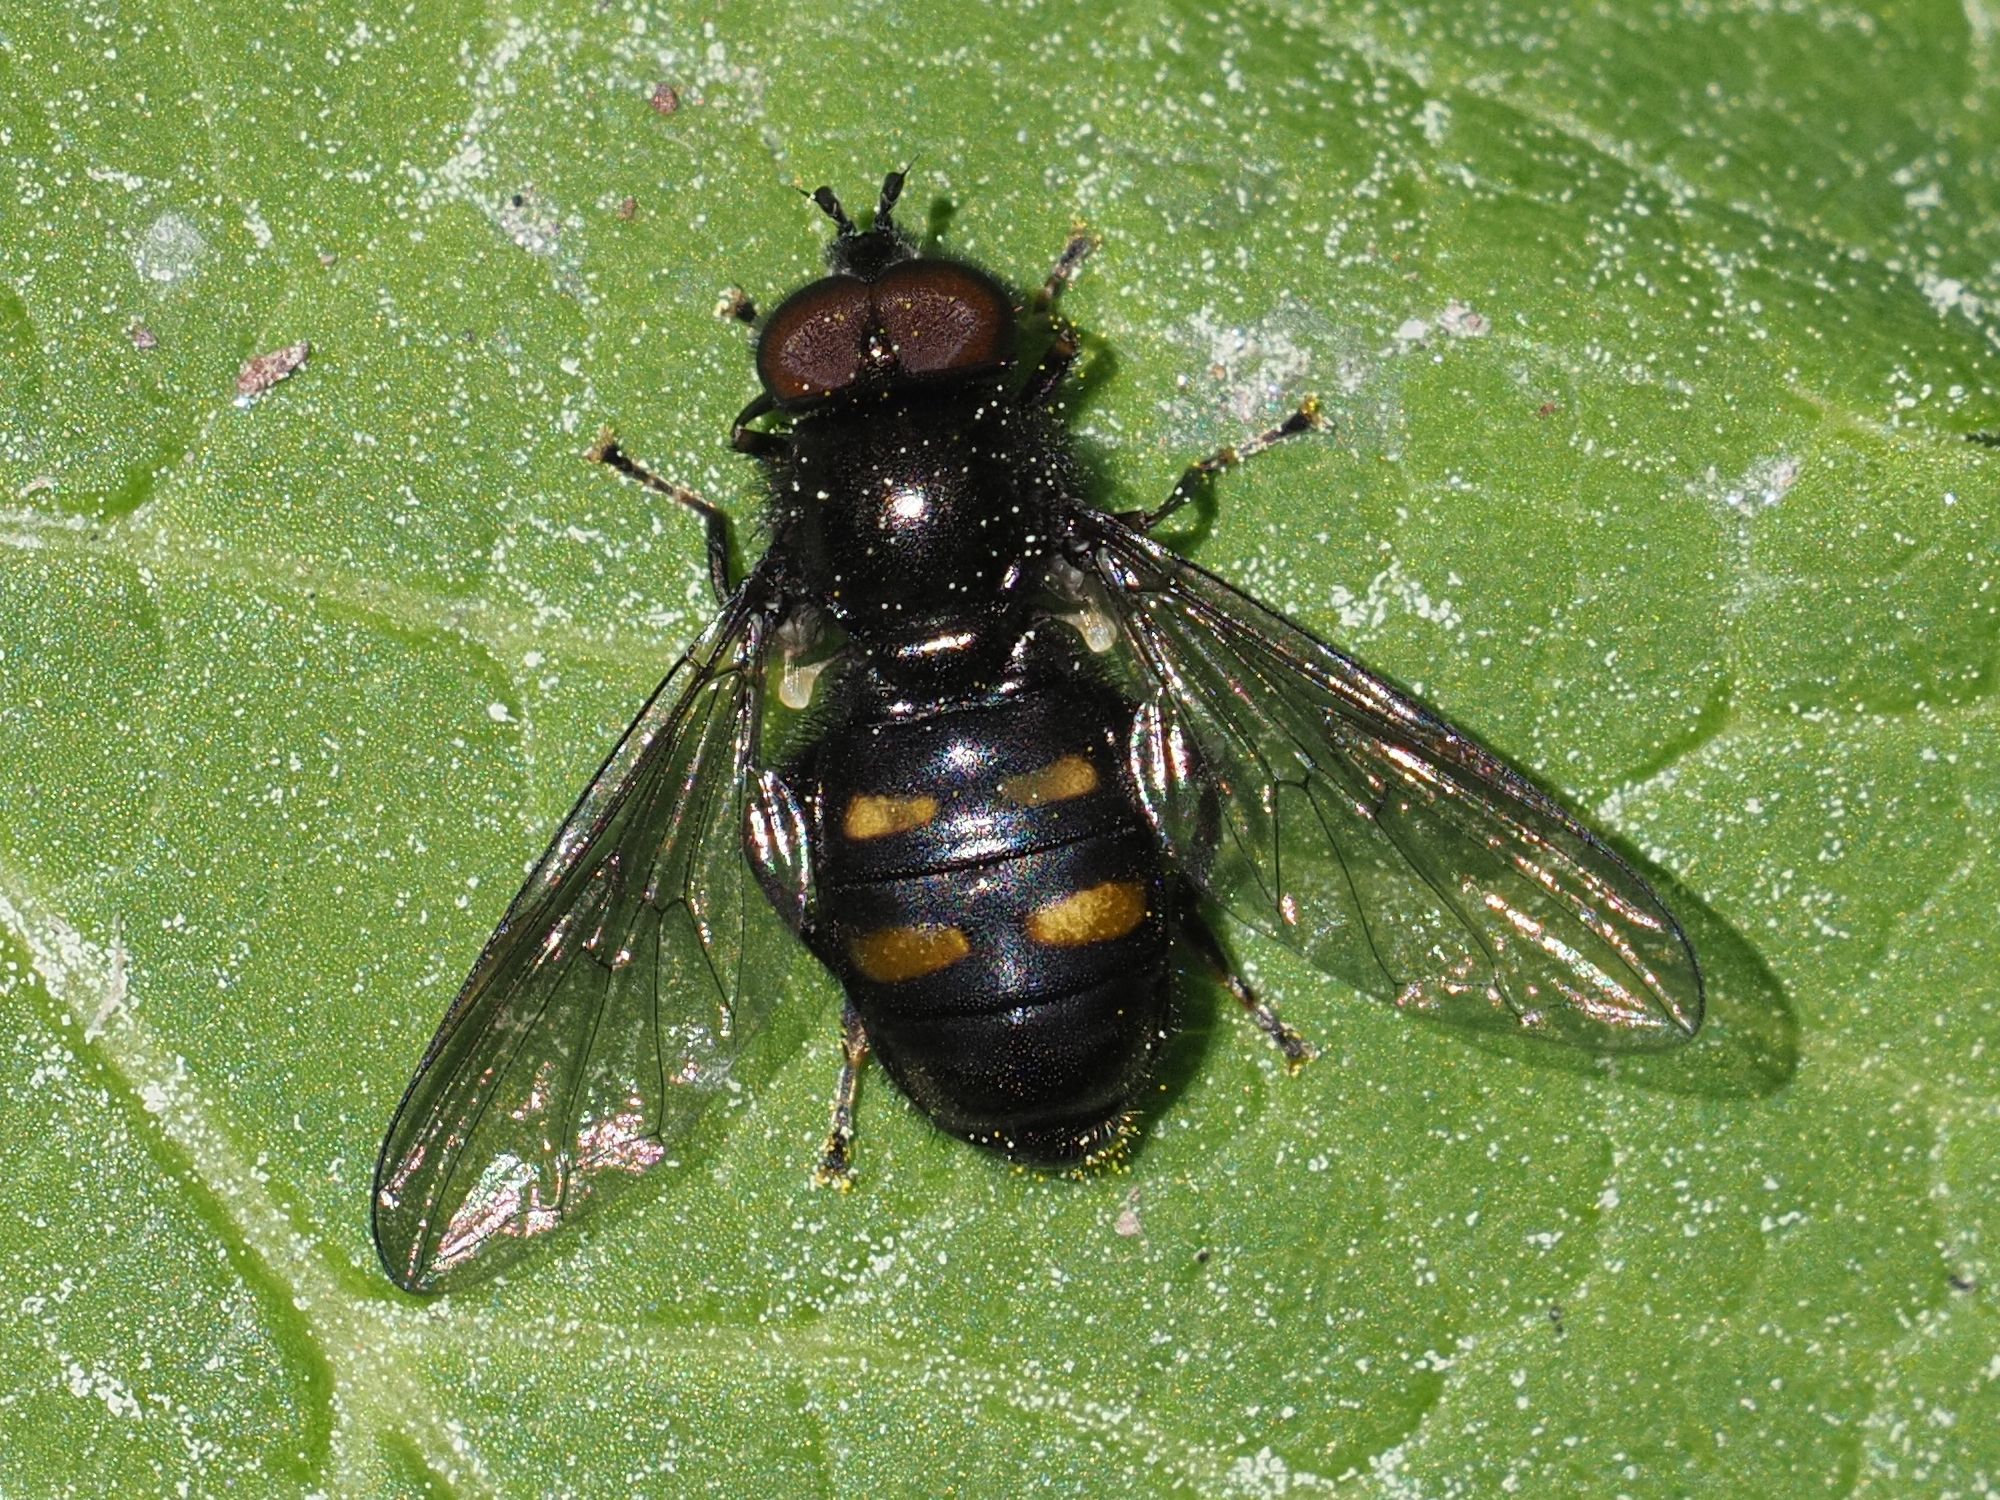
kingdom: Animalia
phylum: Arthropoda
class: Insecta
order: Diptera
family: Syrphidae
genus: Pipiza
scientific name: Pipiza quadrimaculata
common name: Four-spotted pipiza
